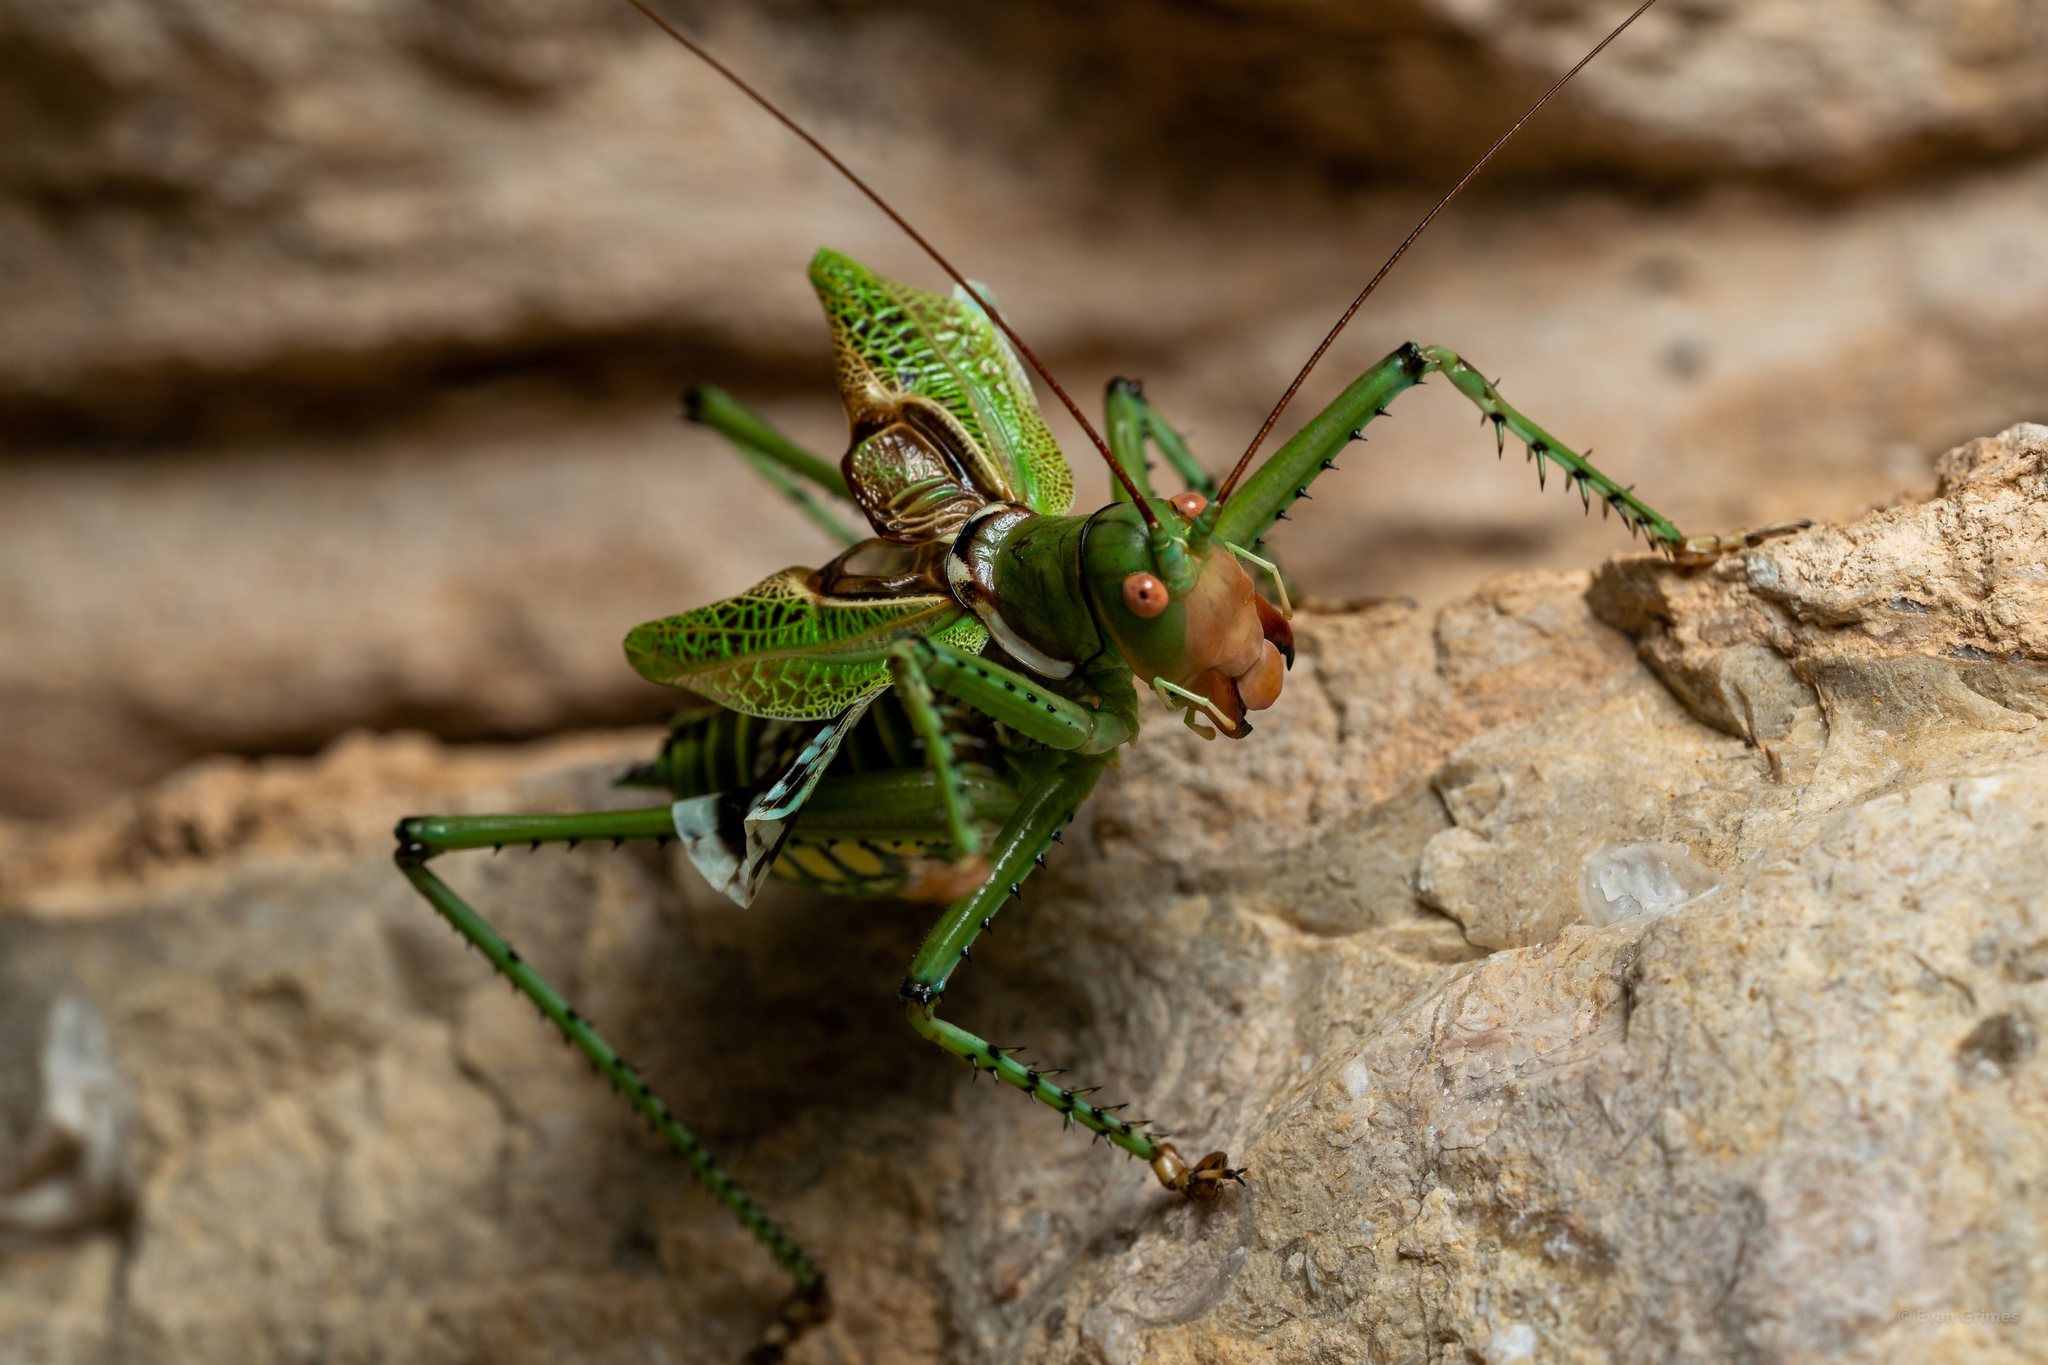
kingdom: Animalia
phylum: Arthropoda
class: Insecta
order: Orthoptera
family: Tettigoniidae
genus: Neobarrettia
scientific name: Neobarrettia spinosa
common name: Greater arid-land katydid
